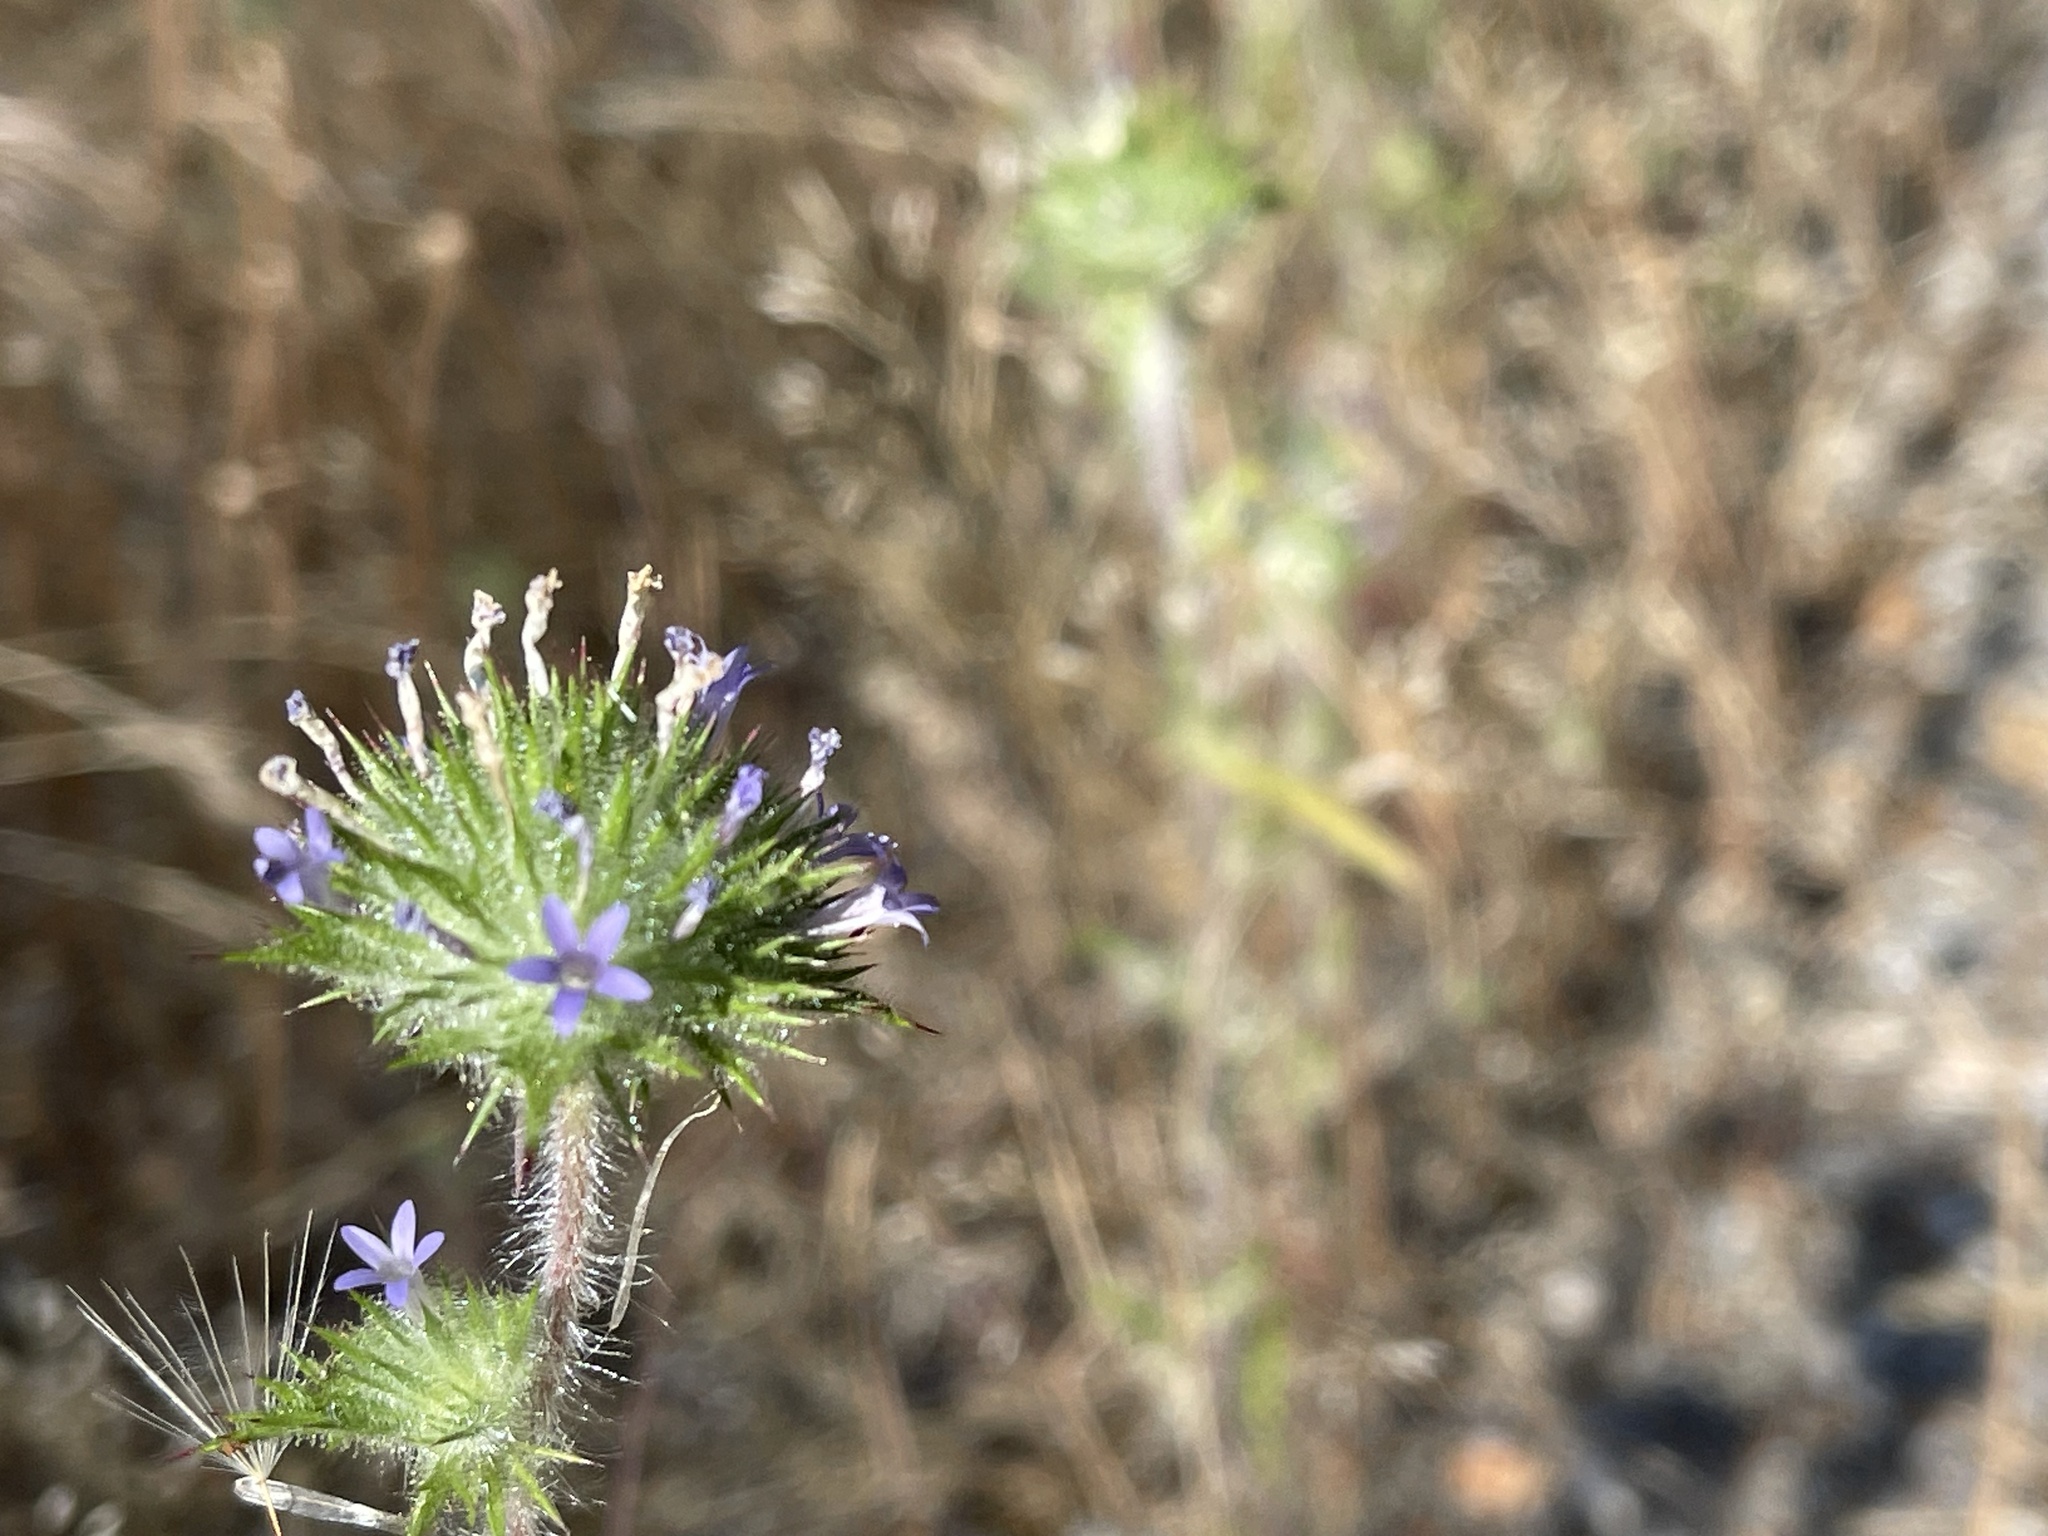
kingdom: Plantae
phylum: Tracheophyta
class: Magnoliopsida
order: Ericales
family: Polemoniaceae
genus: Navarretia
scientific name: Navarretia squarrosa
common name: Skunkweed
